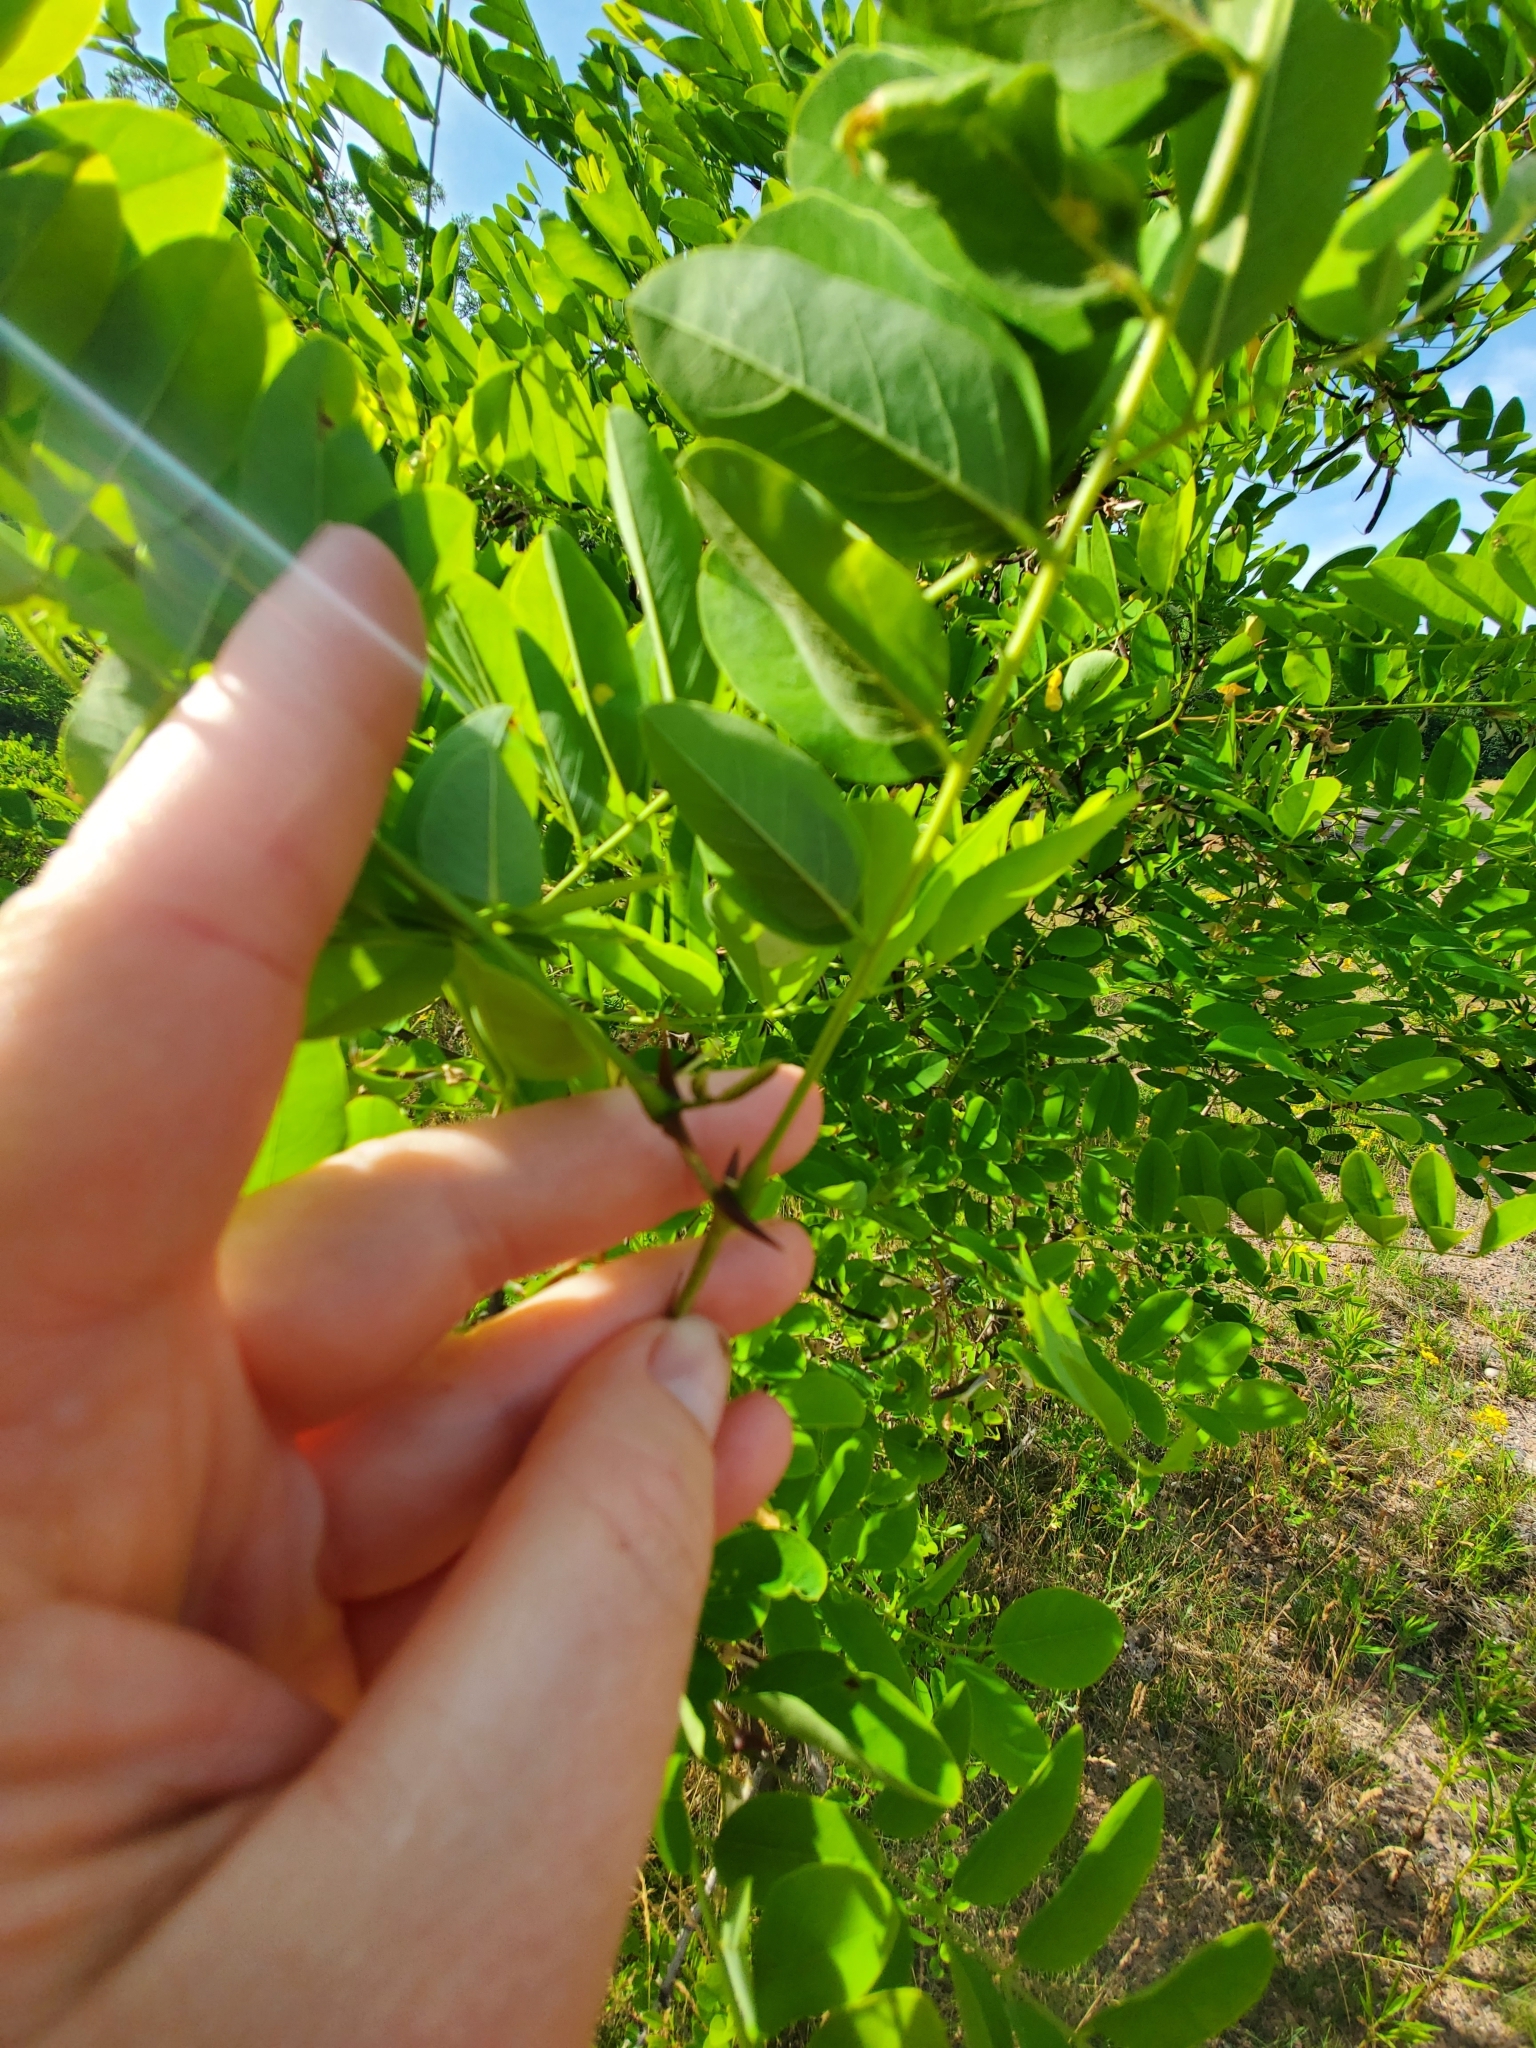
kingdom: Plantae
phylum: Tracheophyta
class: Magnoliopsida
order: Fabales
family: Fabaceae
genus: Robinia
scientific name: Robinia pseudoacacia
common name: Black locust
